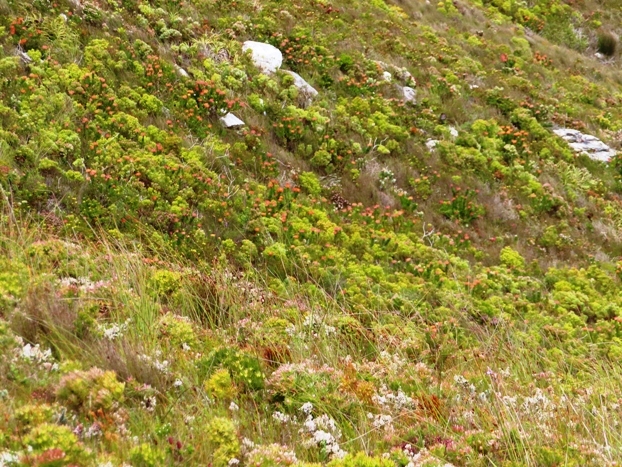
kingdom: Plantae
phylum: Tracheophyta
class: Magnoliopsida
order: Proteales
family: Proteaceae
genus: Leucospermum
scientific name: Leucospermum patersonii
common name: False tree pincushion
